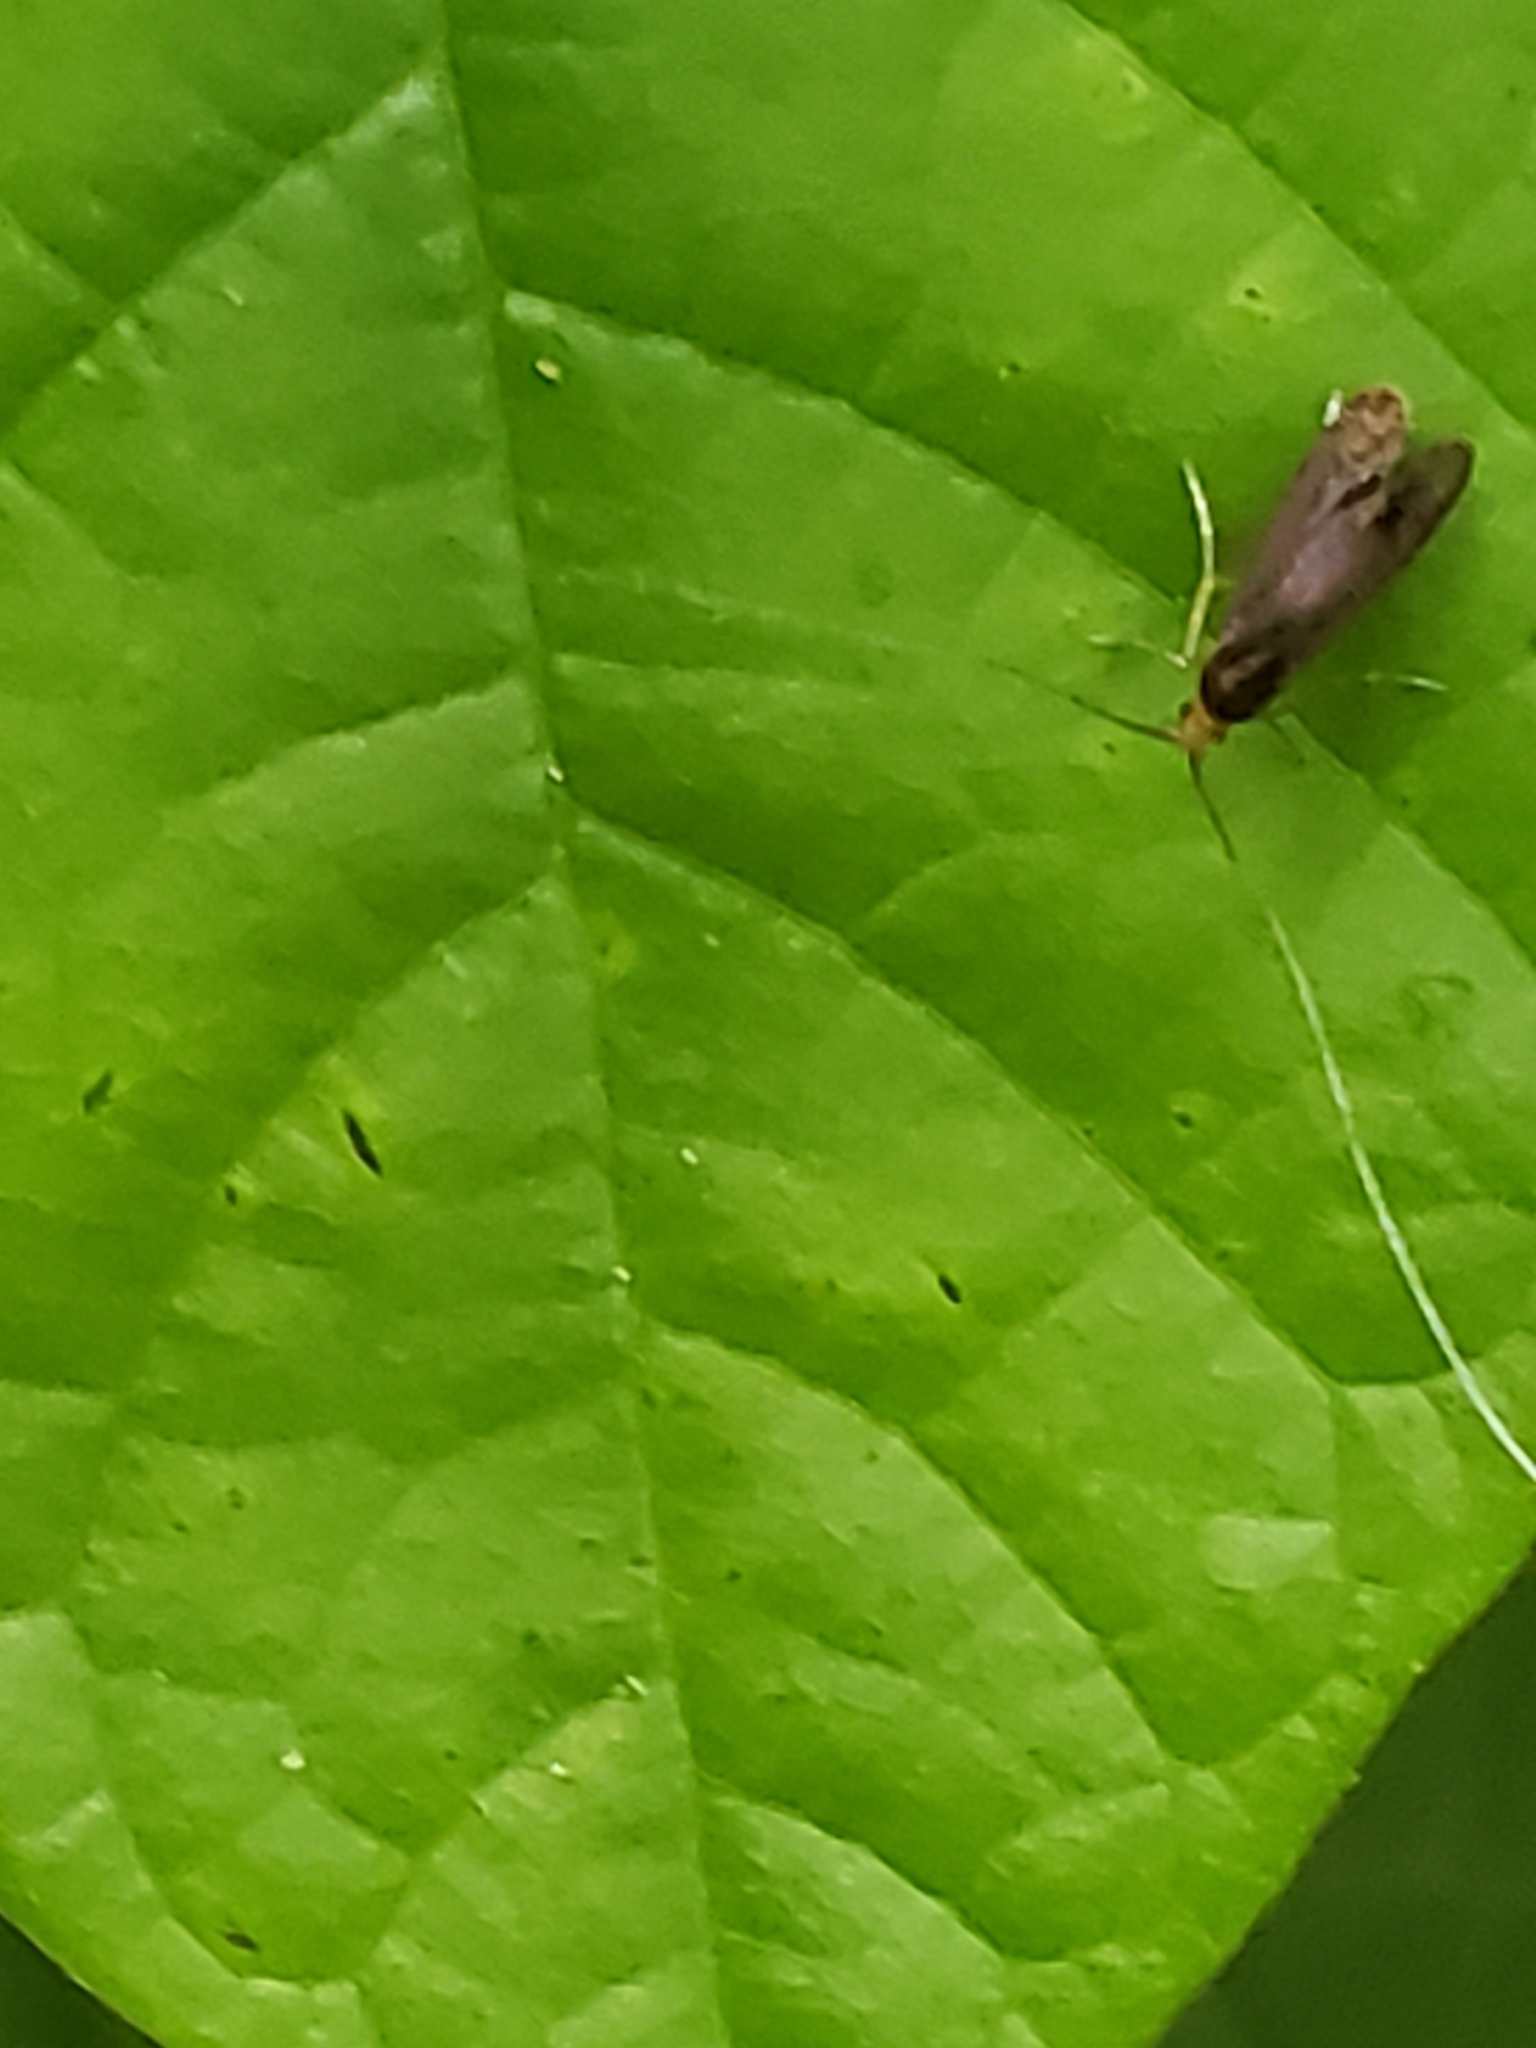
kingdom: Animalia
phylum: Arthropoda
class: Insecta
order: Lepidoptera
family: Adelidae
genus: Adela
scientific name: Adela caeruleella
